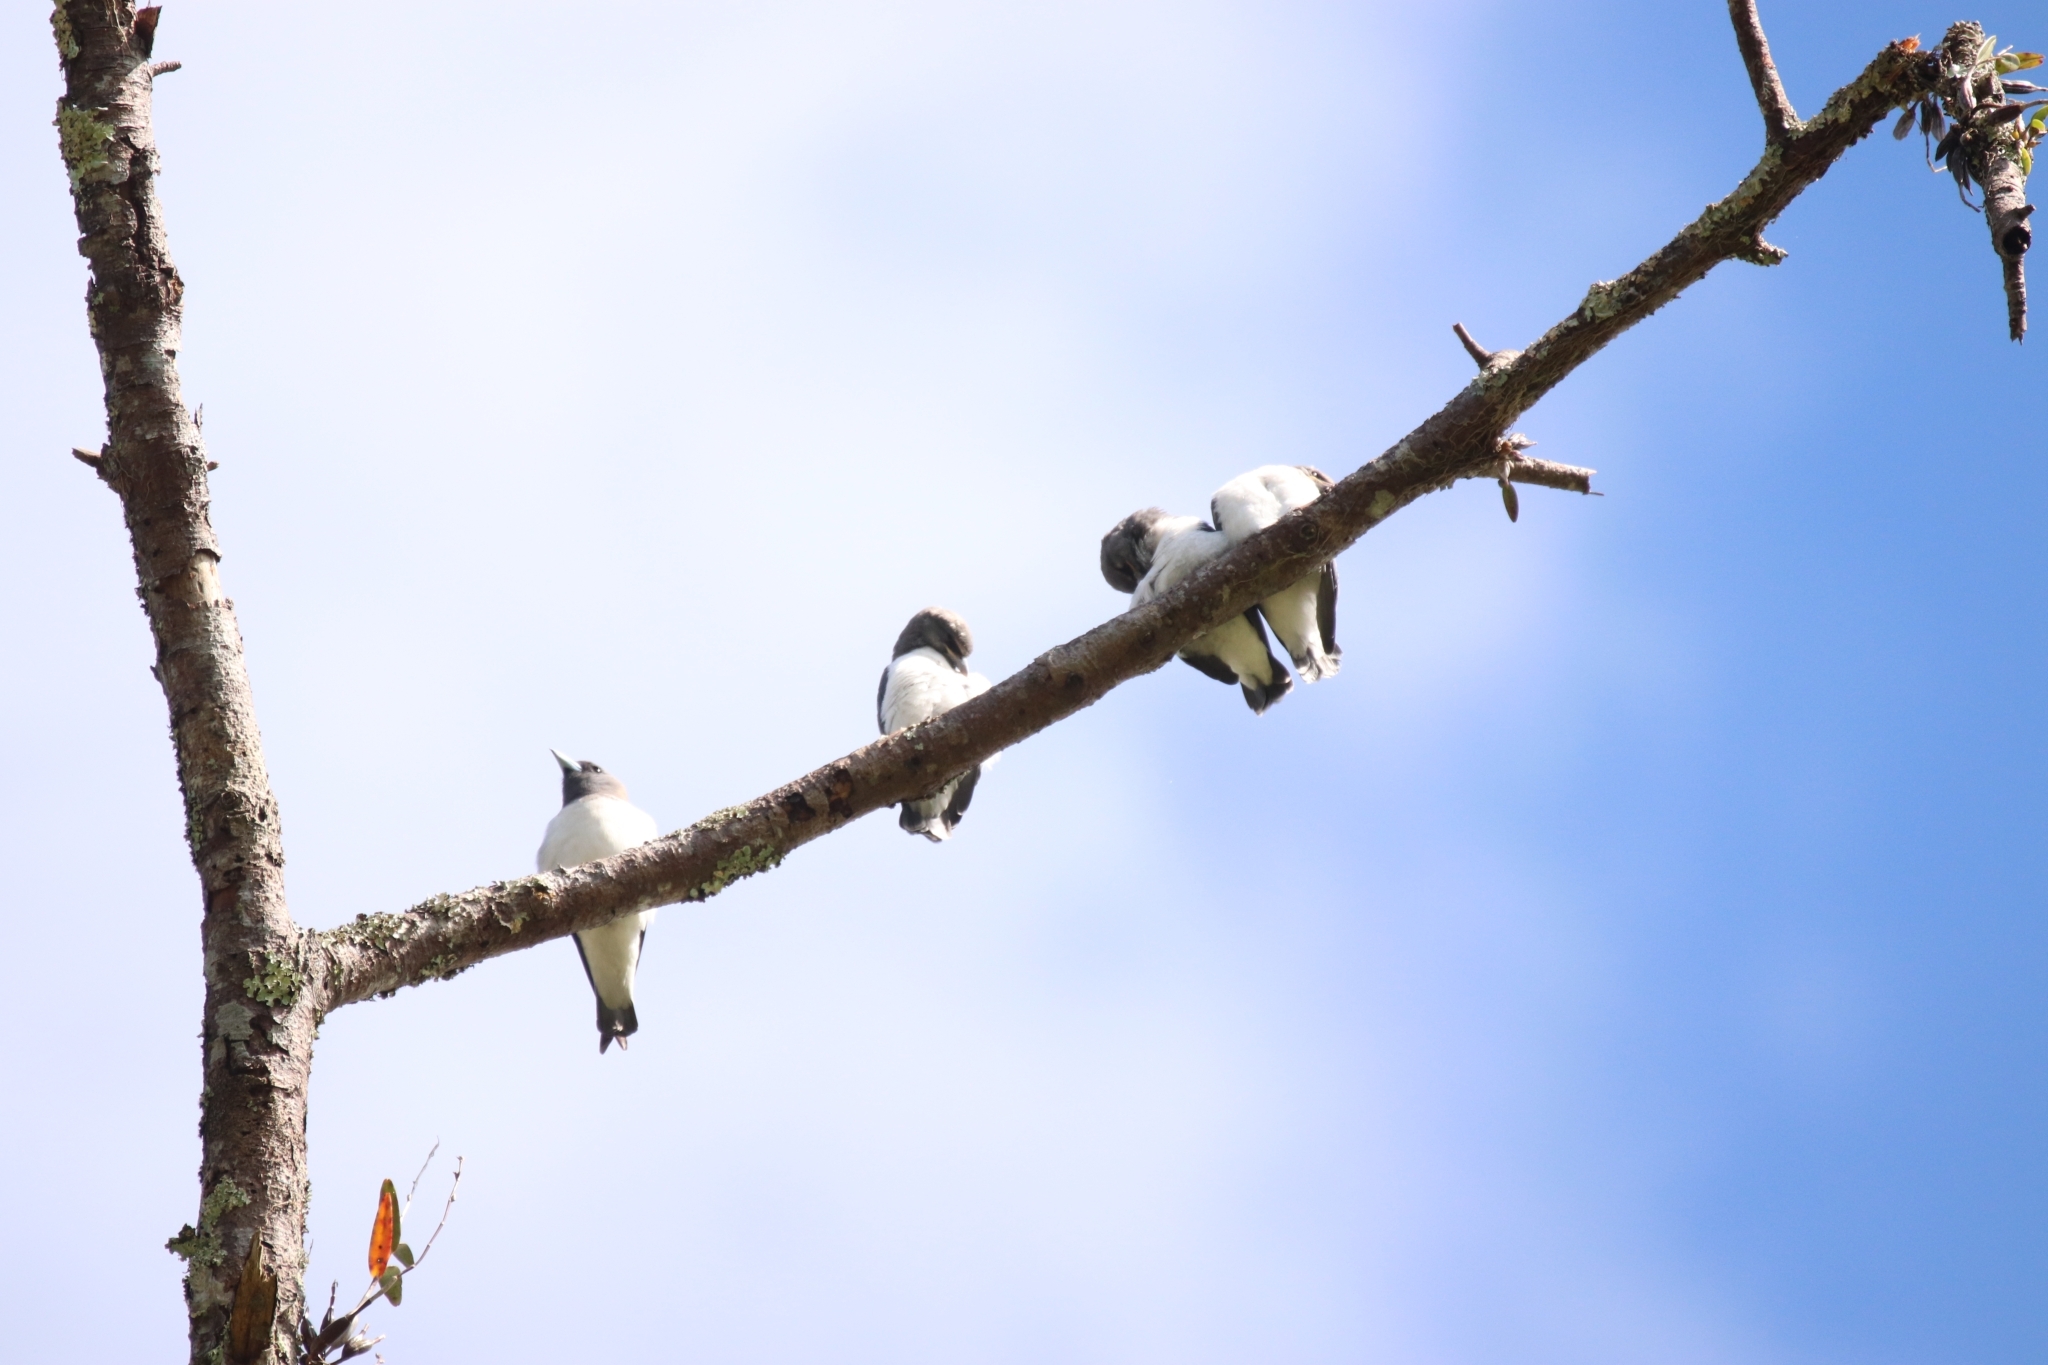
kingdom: Animalia
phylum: Chordata
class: Aves
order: Passeriformes
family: Artamidae
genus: Artamus
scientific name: Artamus leucoryn
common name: White-breasted woodswallow
